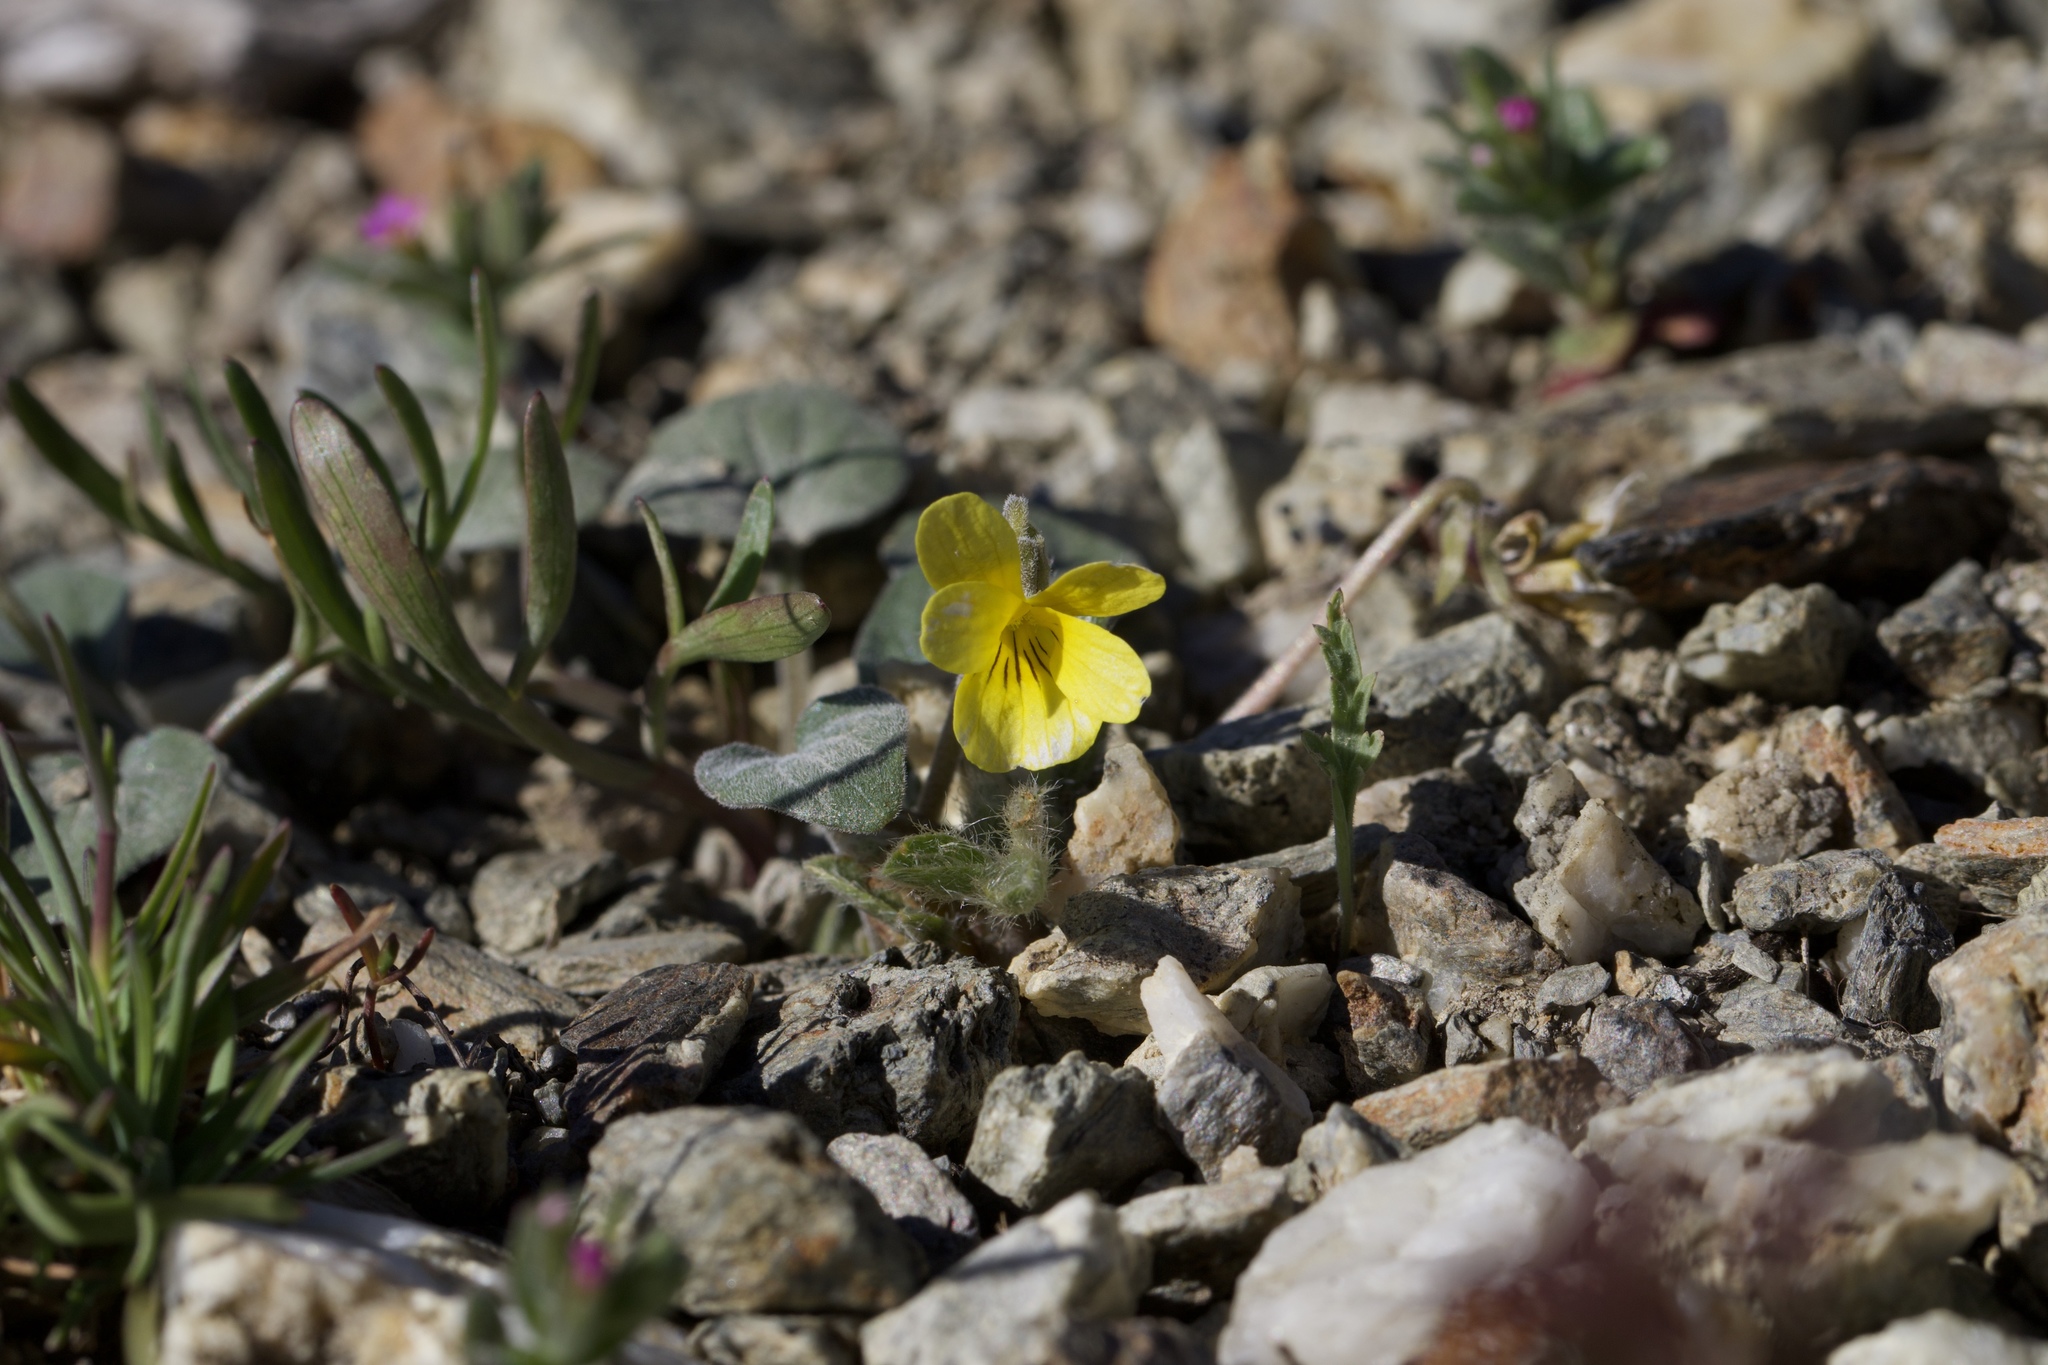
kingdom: Plantae
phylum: Tracheophyta
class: Magnoliopsida
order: Malpighiales
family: Violaceae
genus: Viola
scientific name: Viola purpurea
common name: Pine violet
